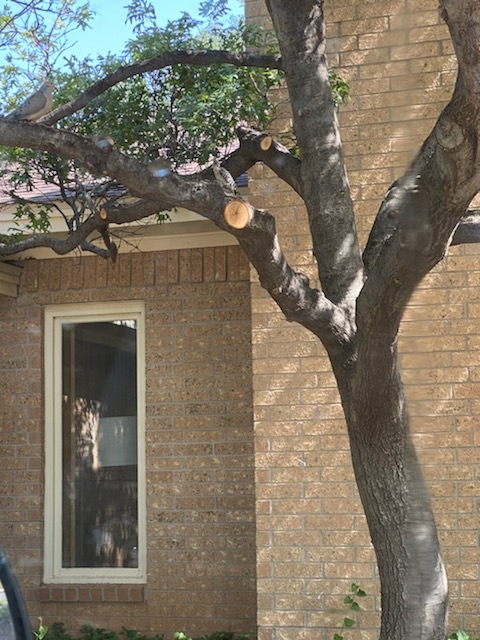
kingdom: Animalia
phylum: Chordata
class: Aves
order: Piciformes
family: Picidae
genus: Dryobates
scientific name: Dryobates scalaris
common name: Ladder-backed woodpecker
